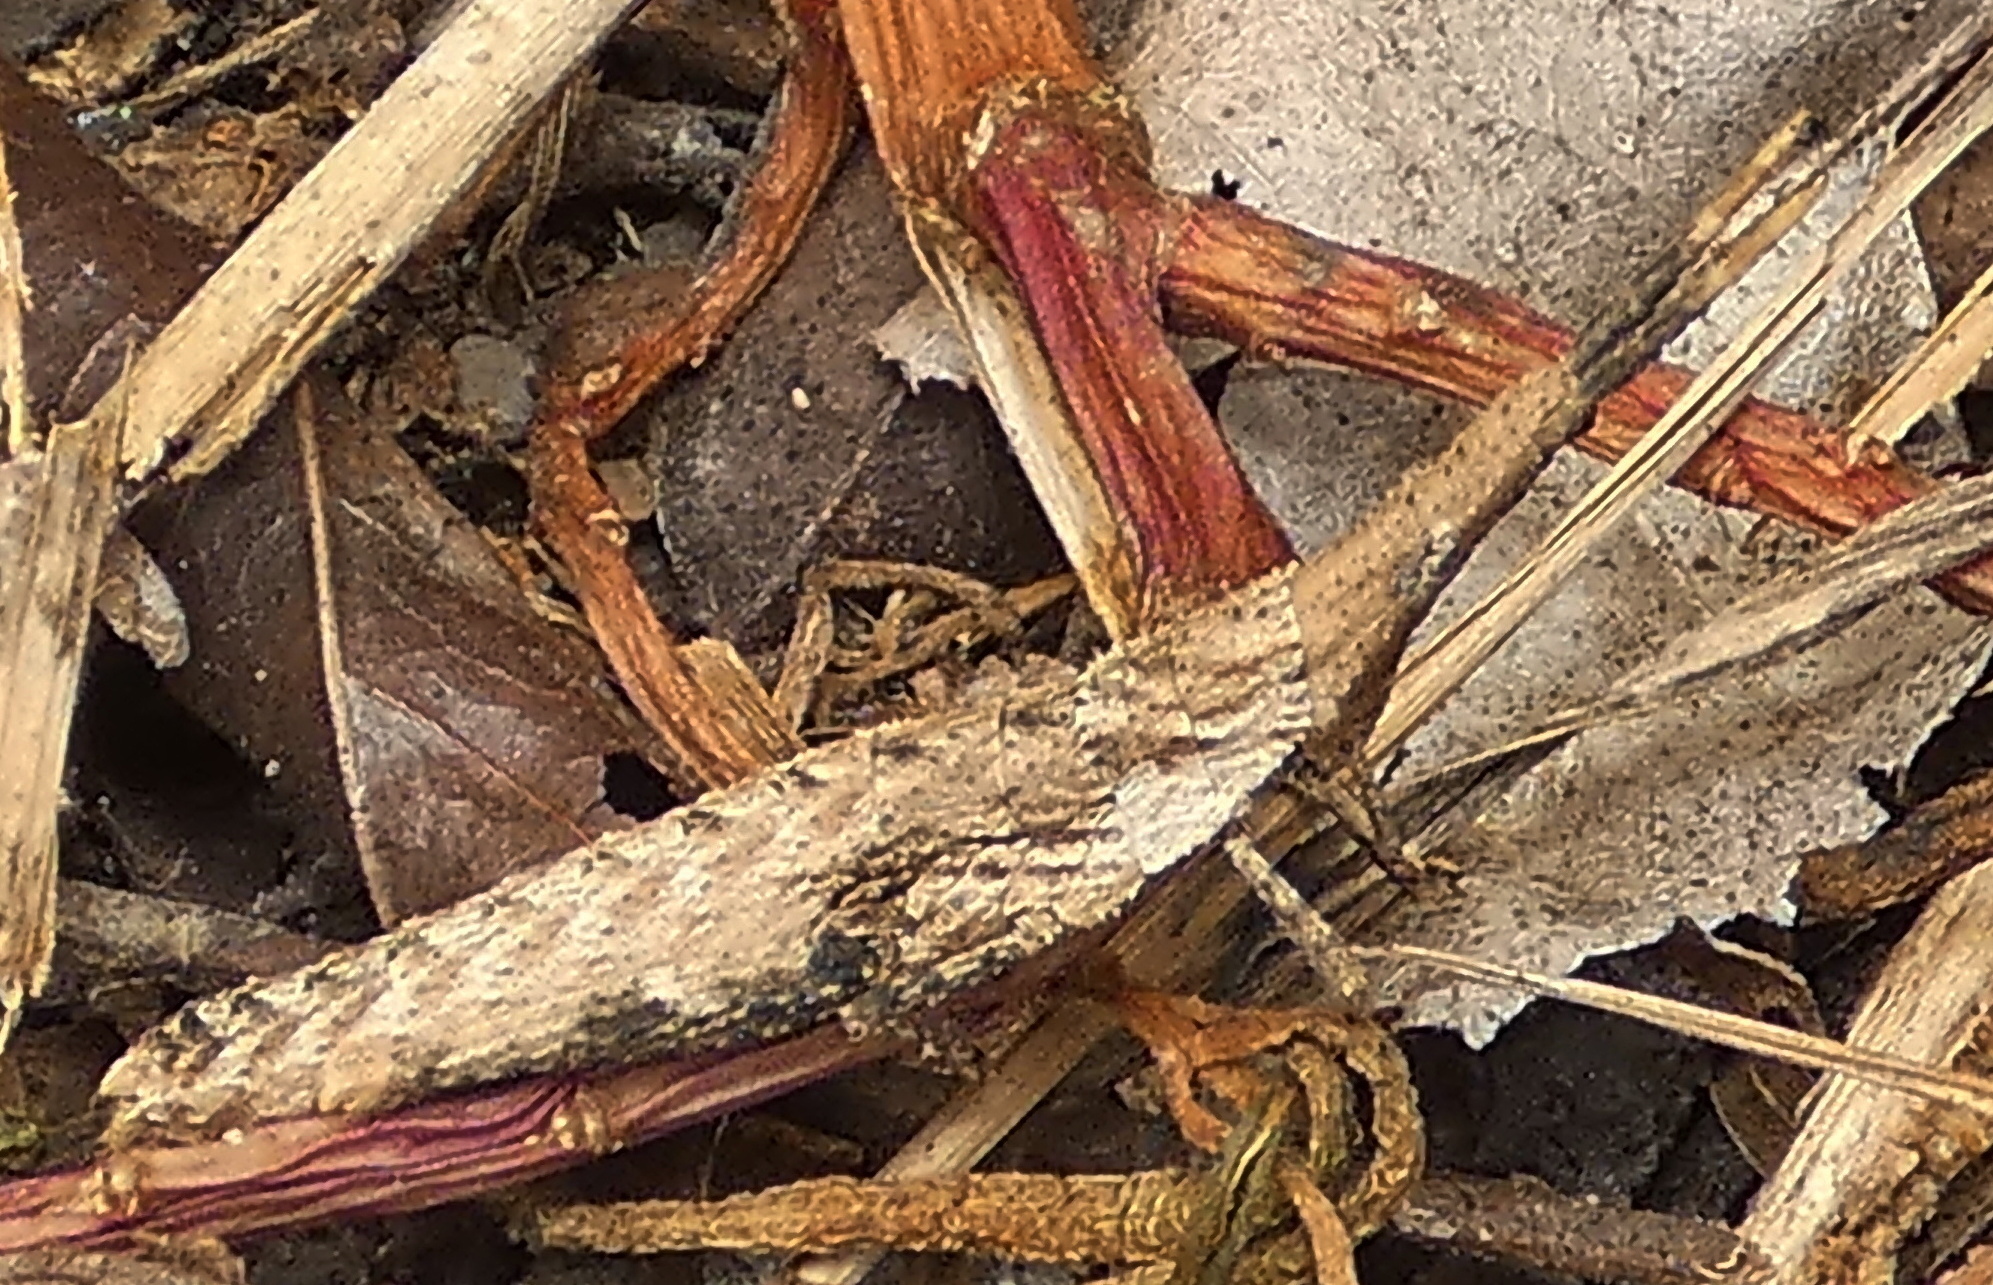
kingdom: Animalia
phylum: Arthropoda
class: Insecta
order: Orthoptera
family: Pyrgomorphidae
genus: Algete
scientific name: Algete brunneri
